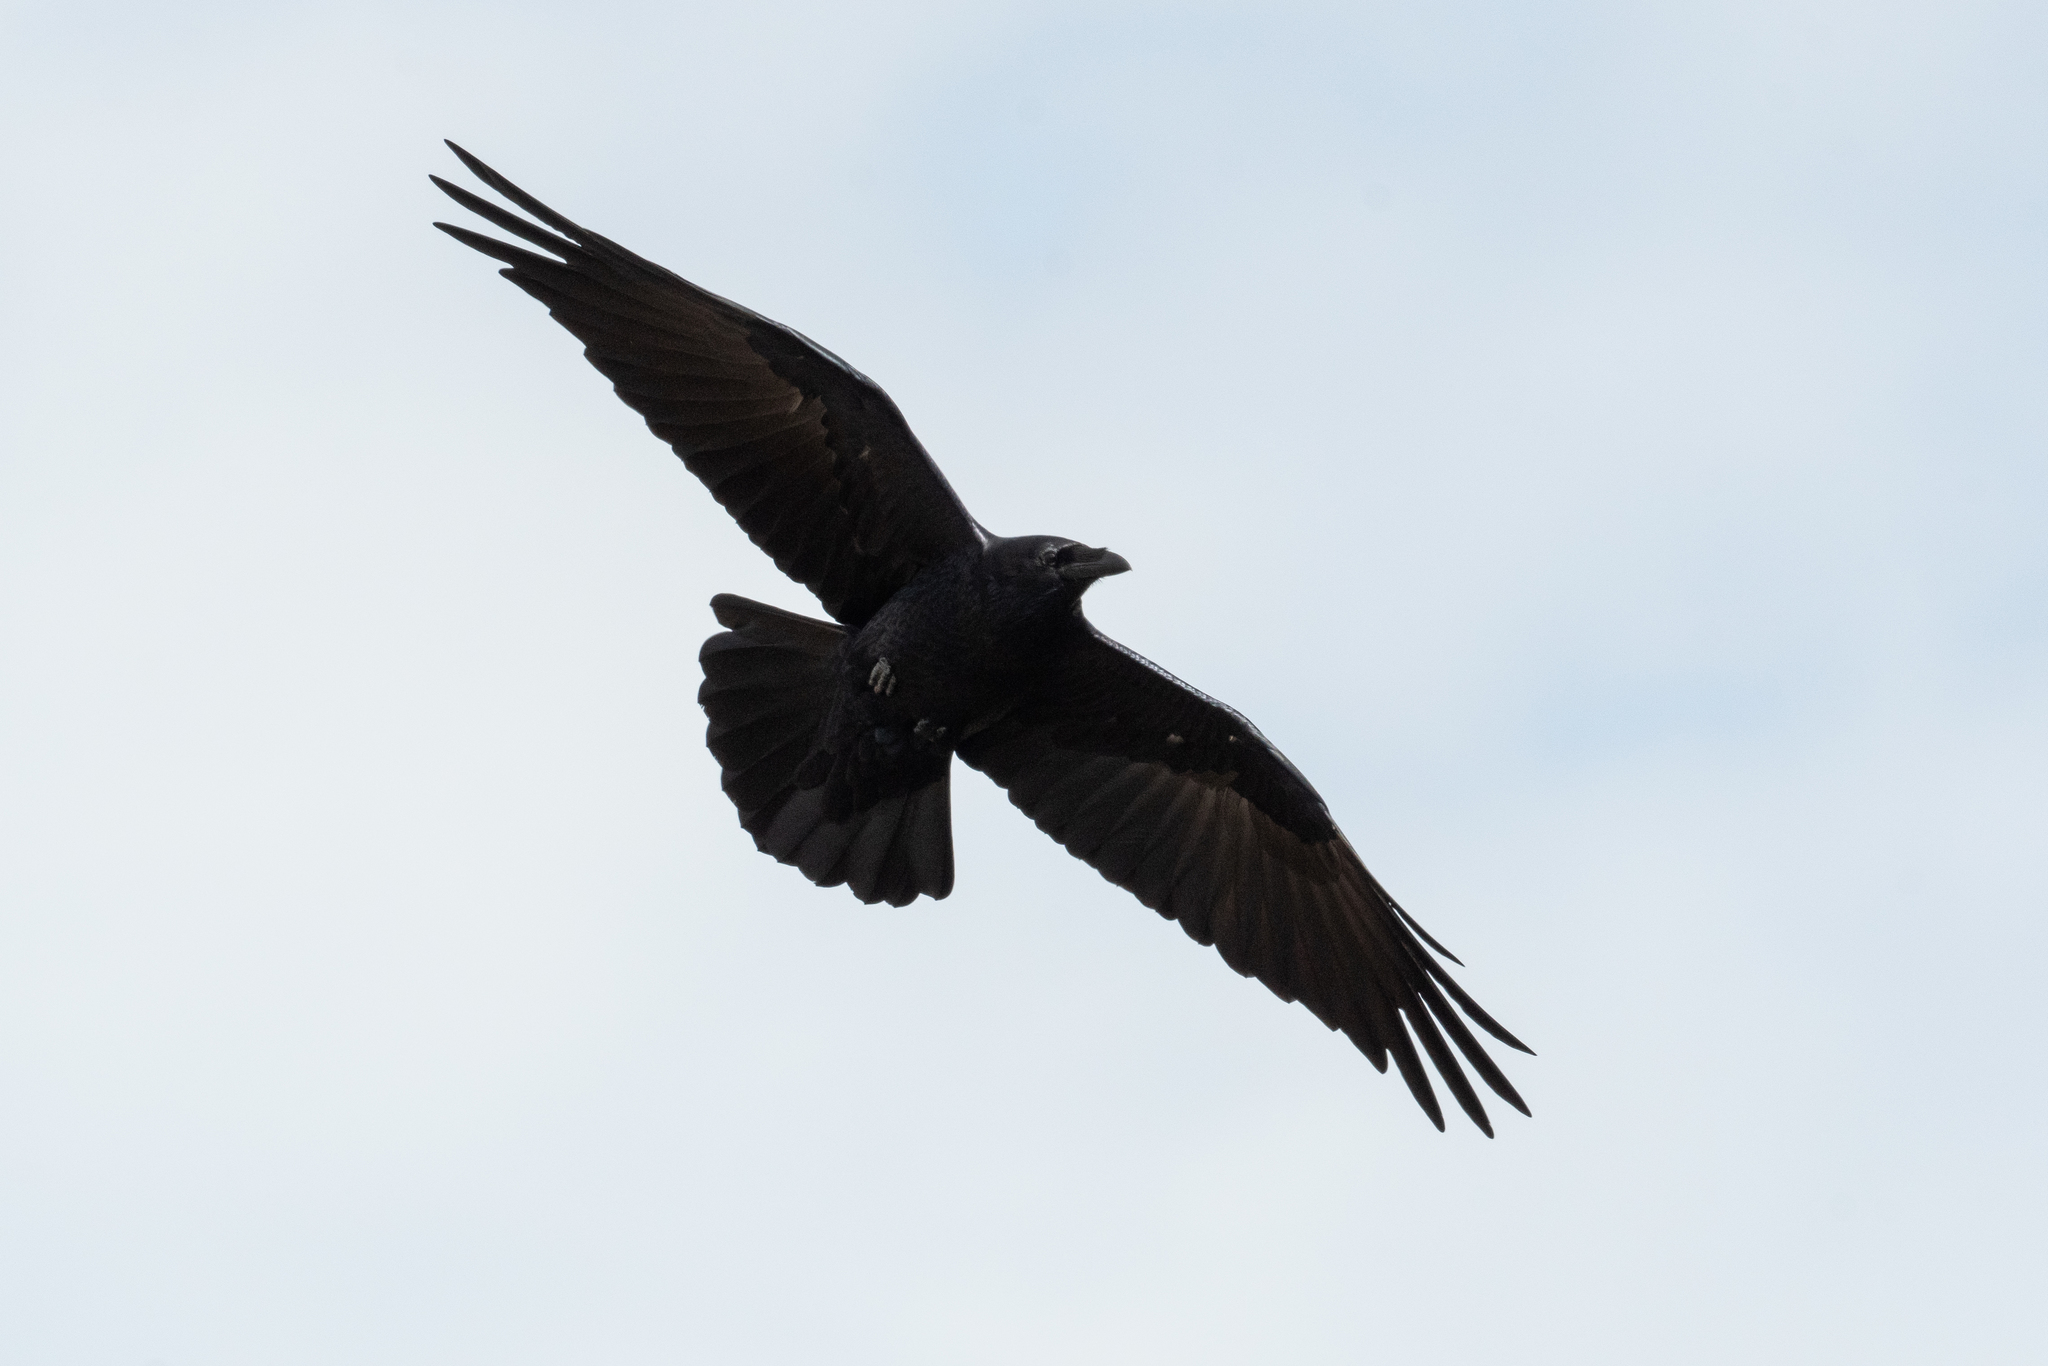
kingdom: Animalia
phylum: Chordata
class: Aves
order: Passeriformes
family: Corvidae
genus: Corvus
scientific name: Corvus corax
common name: Common raven
